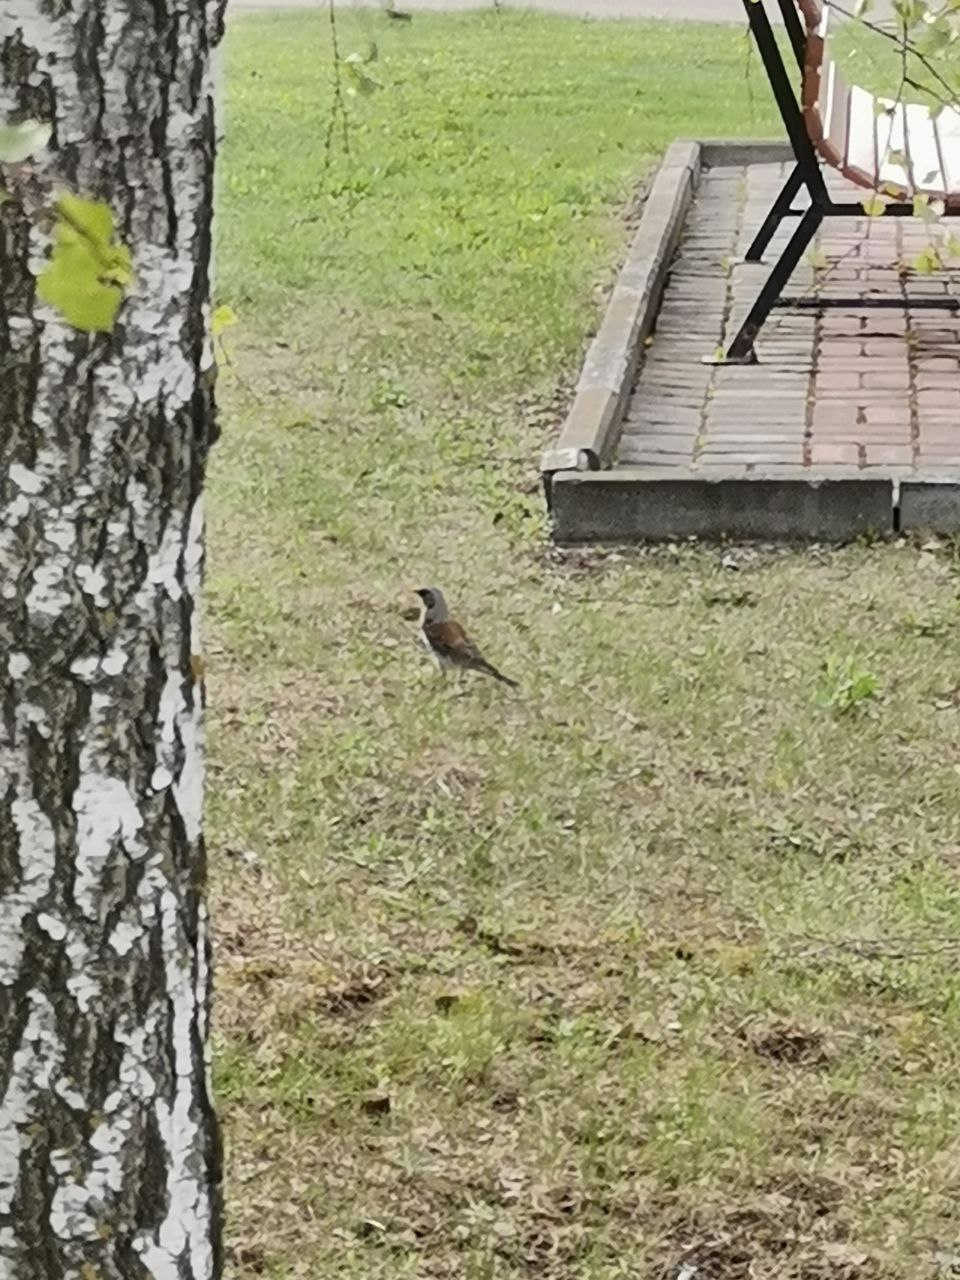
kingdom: Animalia
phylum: Chordata
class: Aves
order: Passeriformes
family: Turdidae
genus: Turdus
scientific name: Turdus pilaris
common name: Fieldfare
